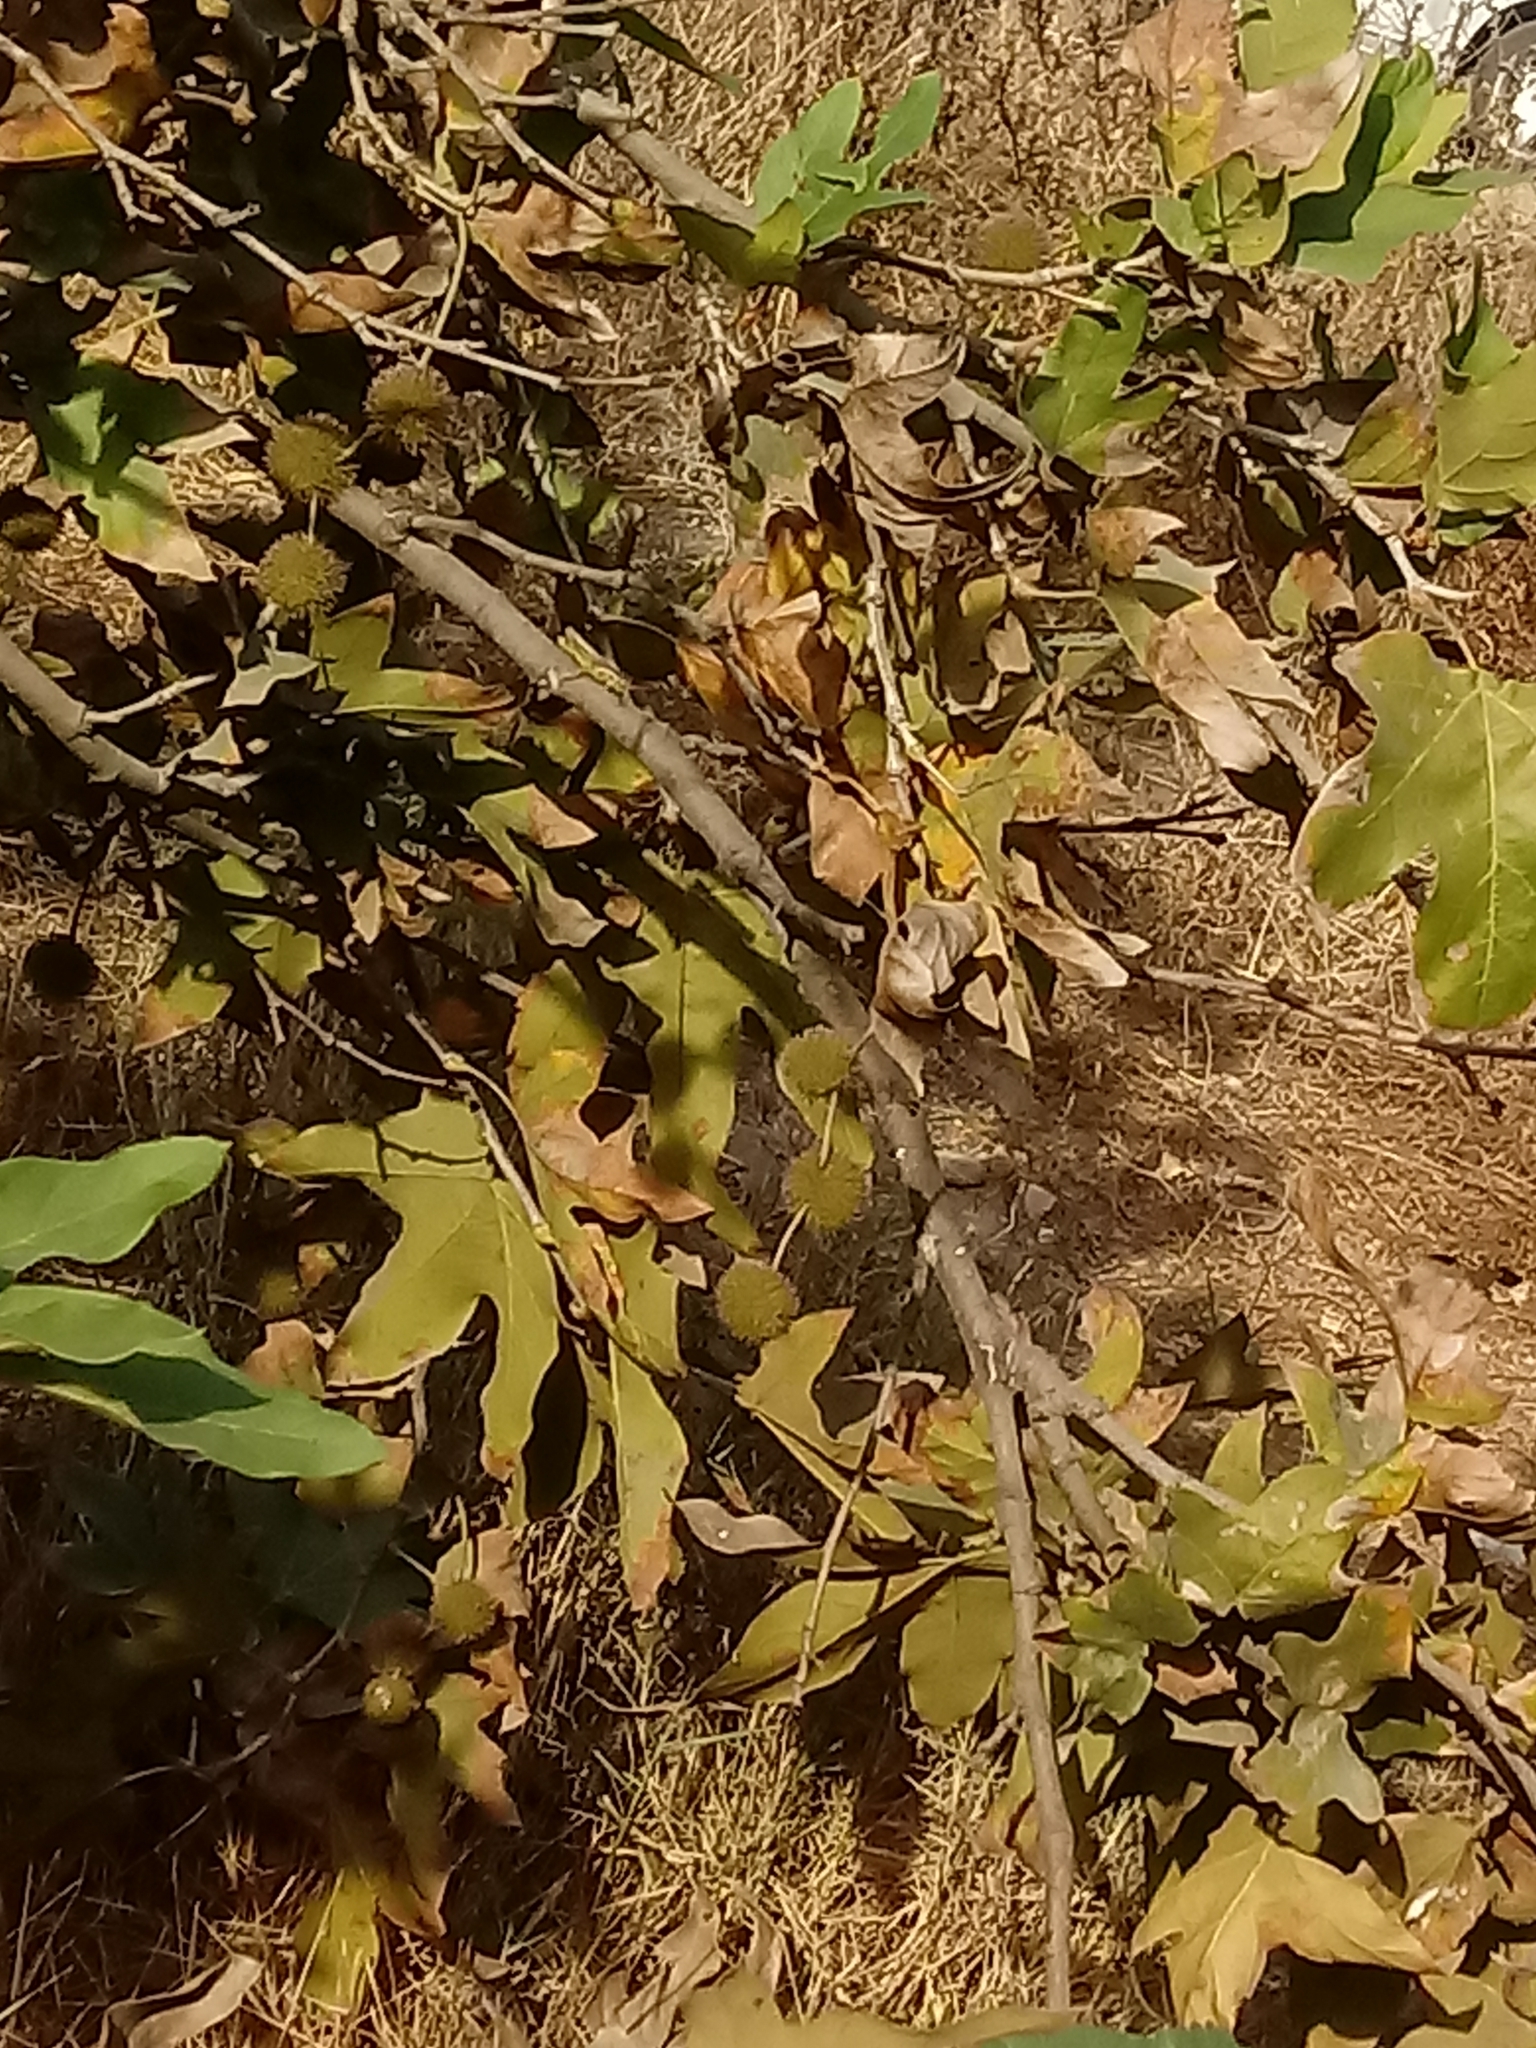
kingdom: Plantae
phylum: Tracheophyta
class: Magnoliopsida
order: Proteales
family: Platanaceae
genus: Platanus
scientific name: Platanus racemosa
